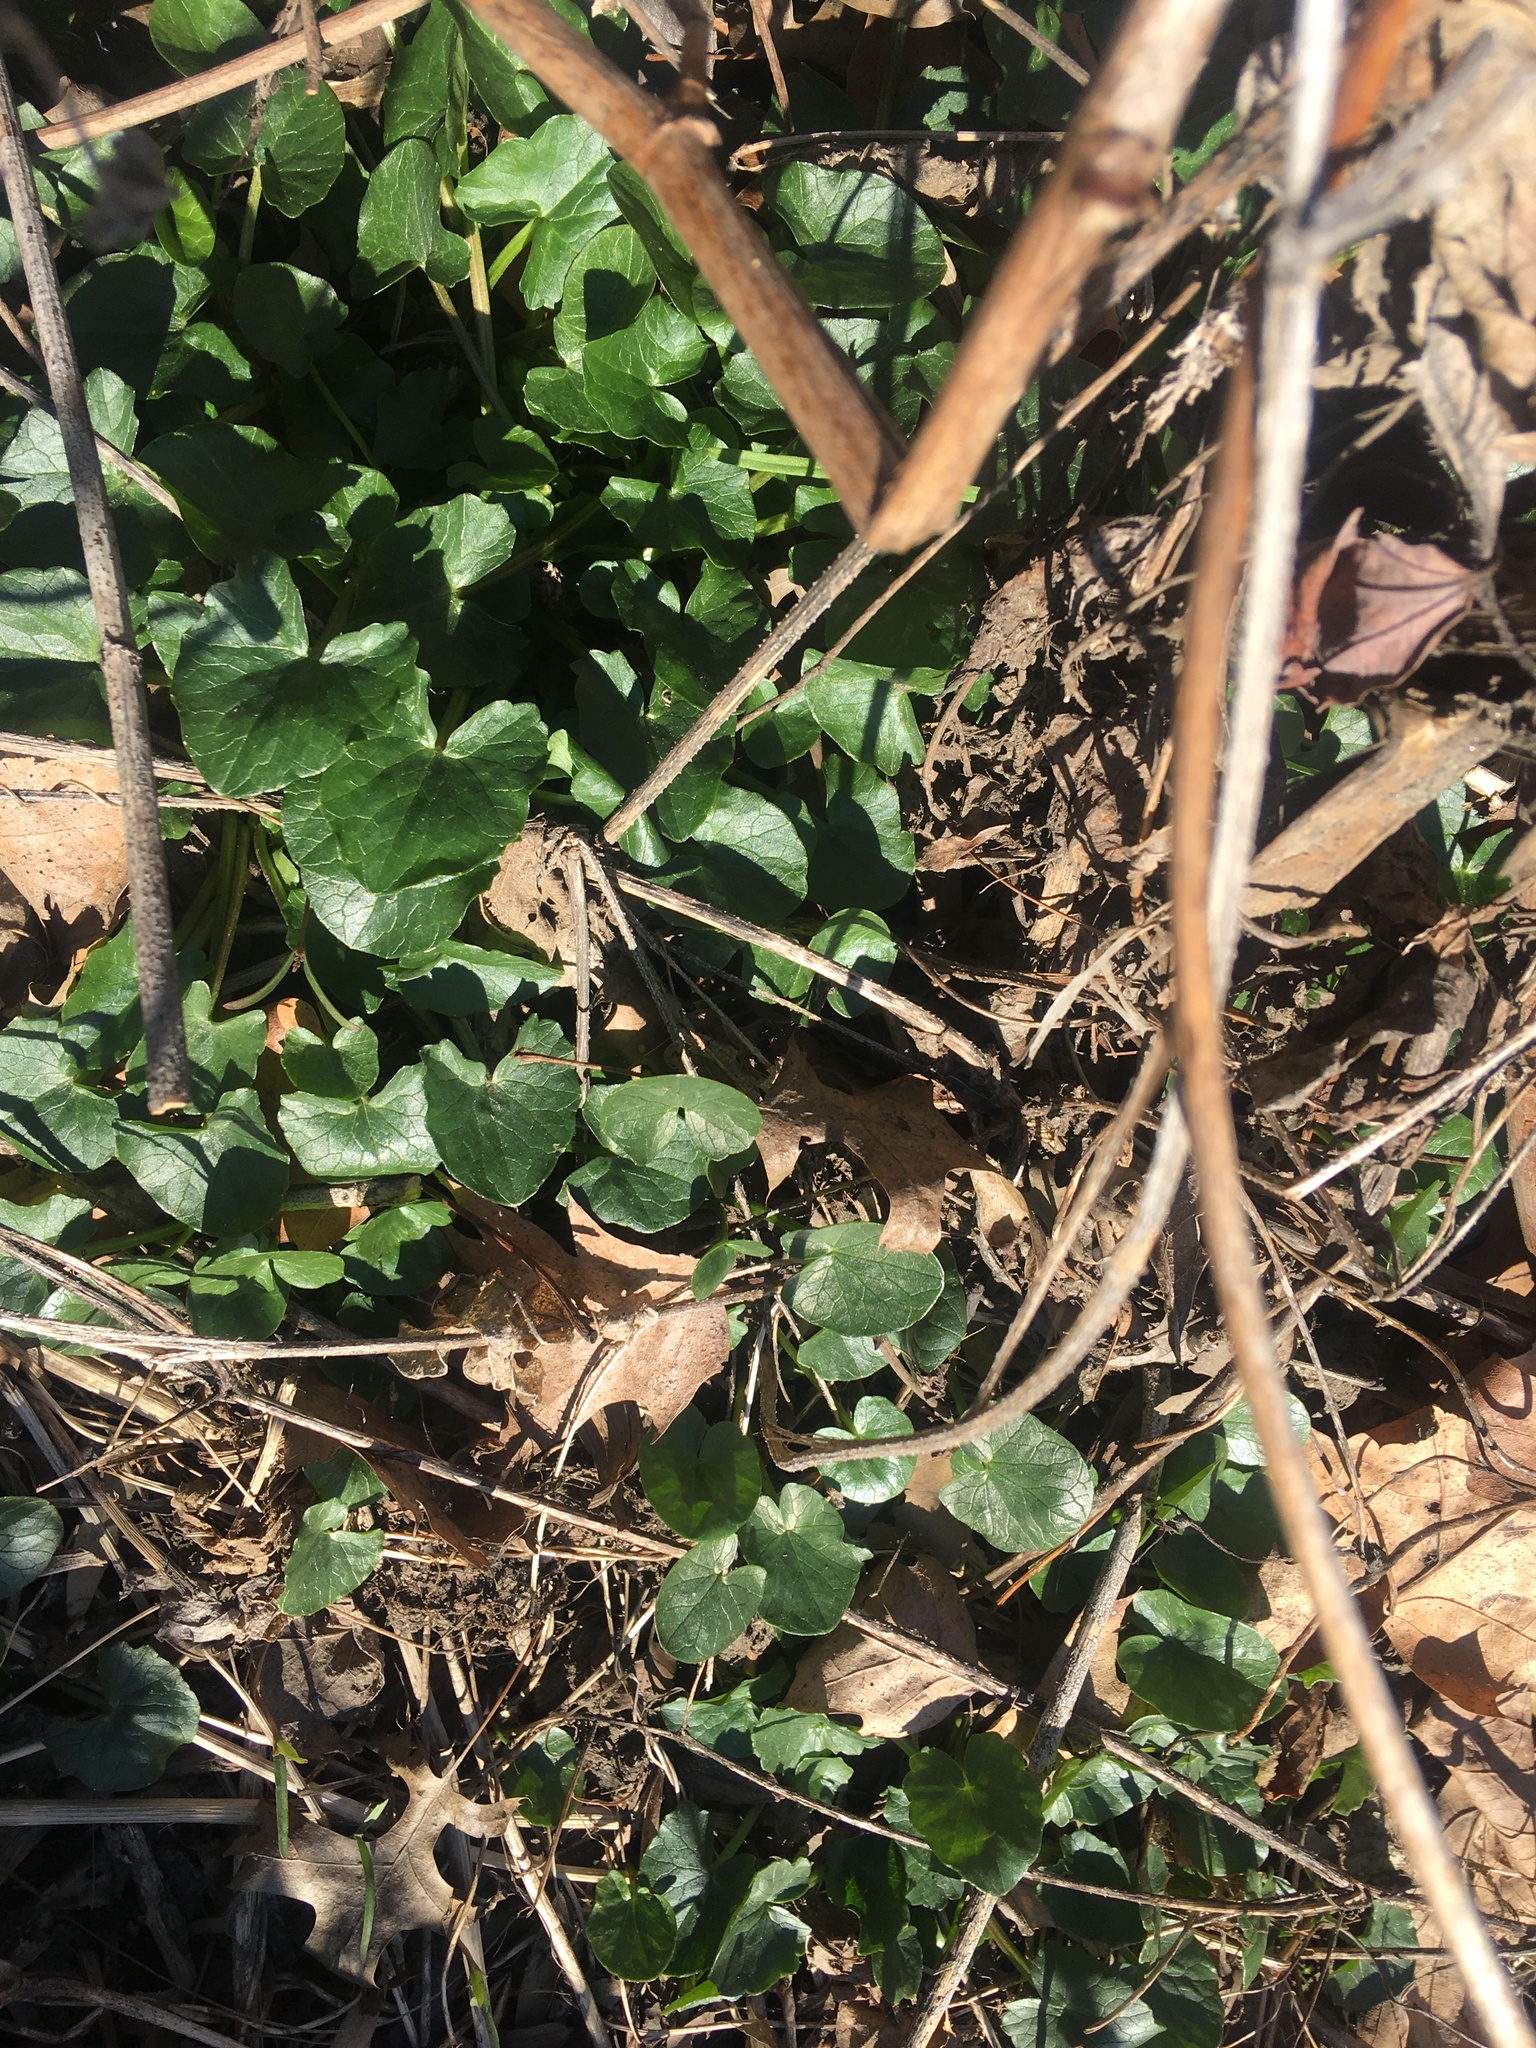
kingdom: Plantae
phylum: Tracheophyta
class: Magnoliopsida
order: Ranunculales
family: Ranunculaceae
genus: Ficaria
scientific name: Ficaria verna
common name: Lesser celandine
